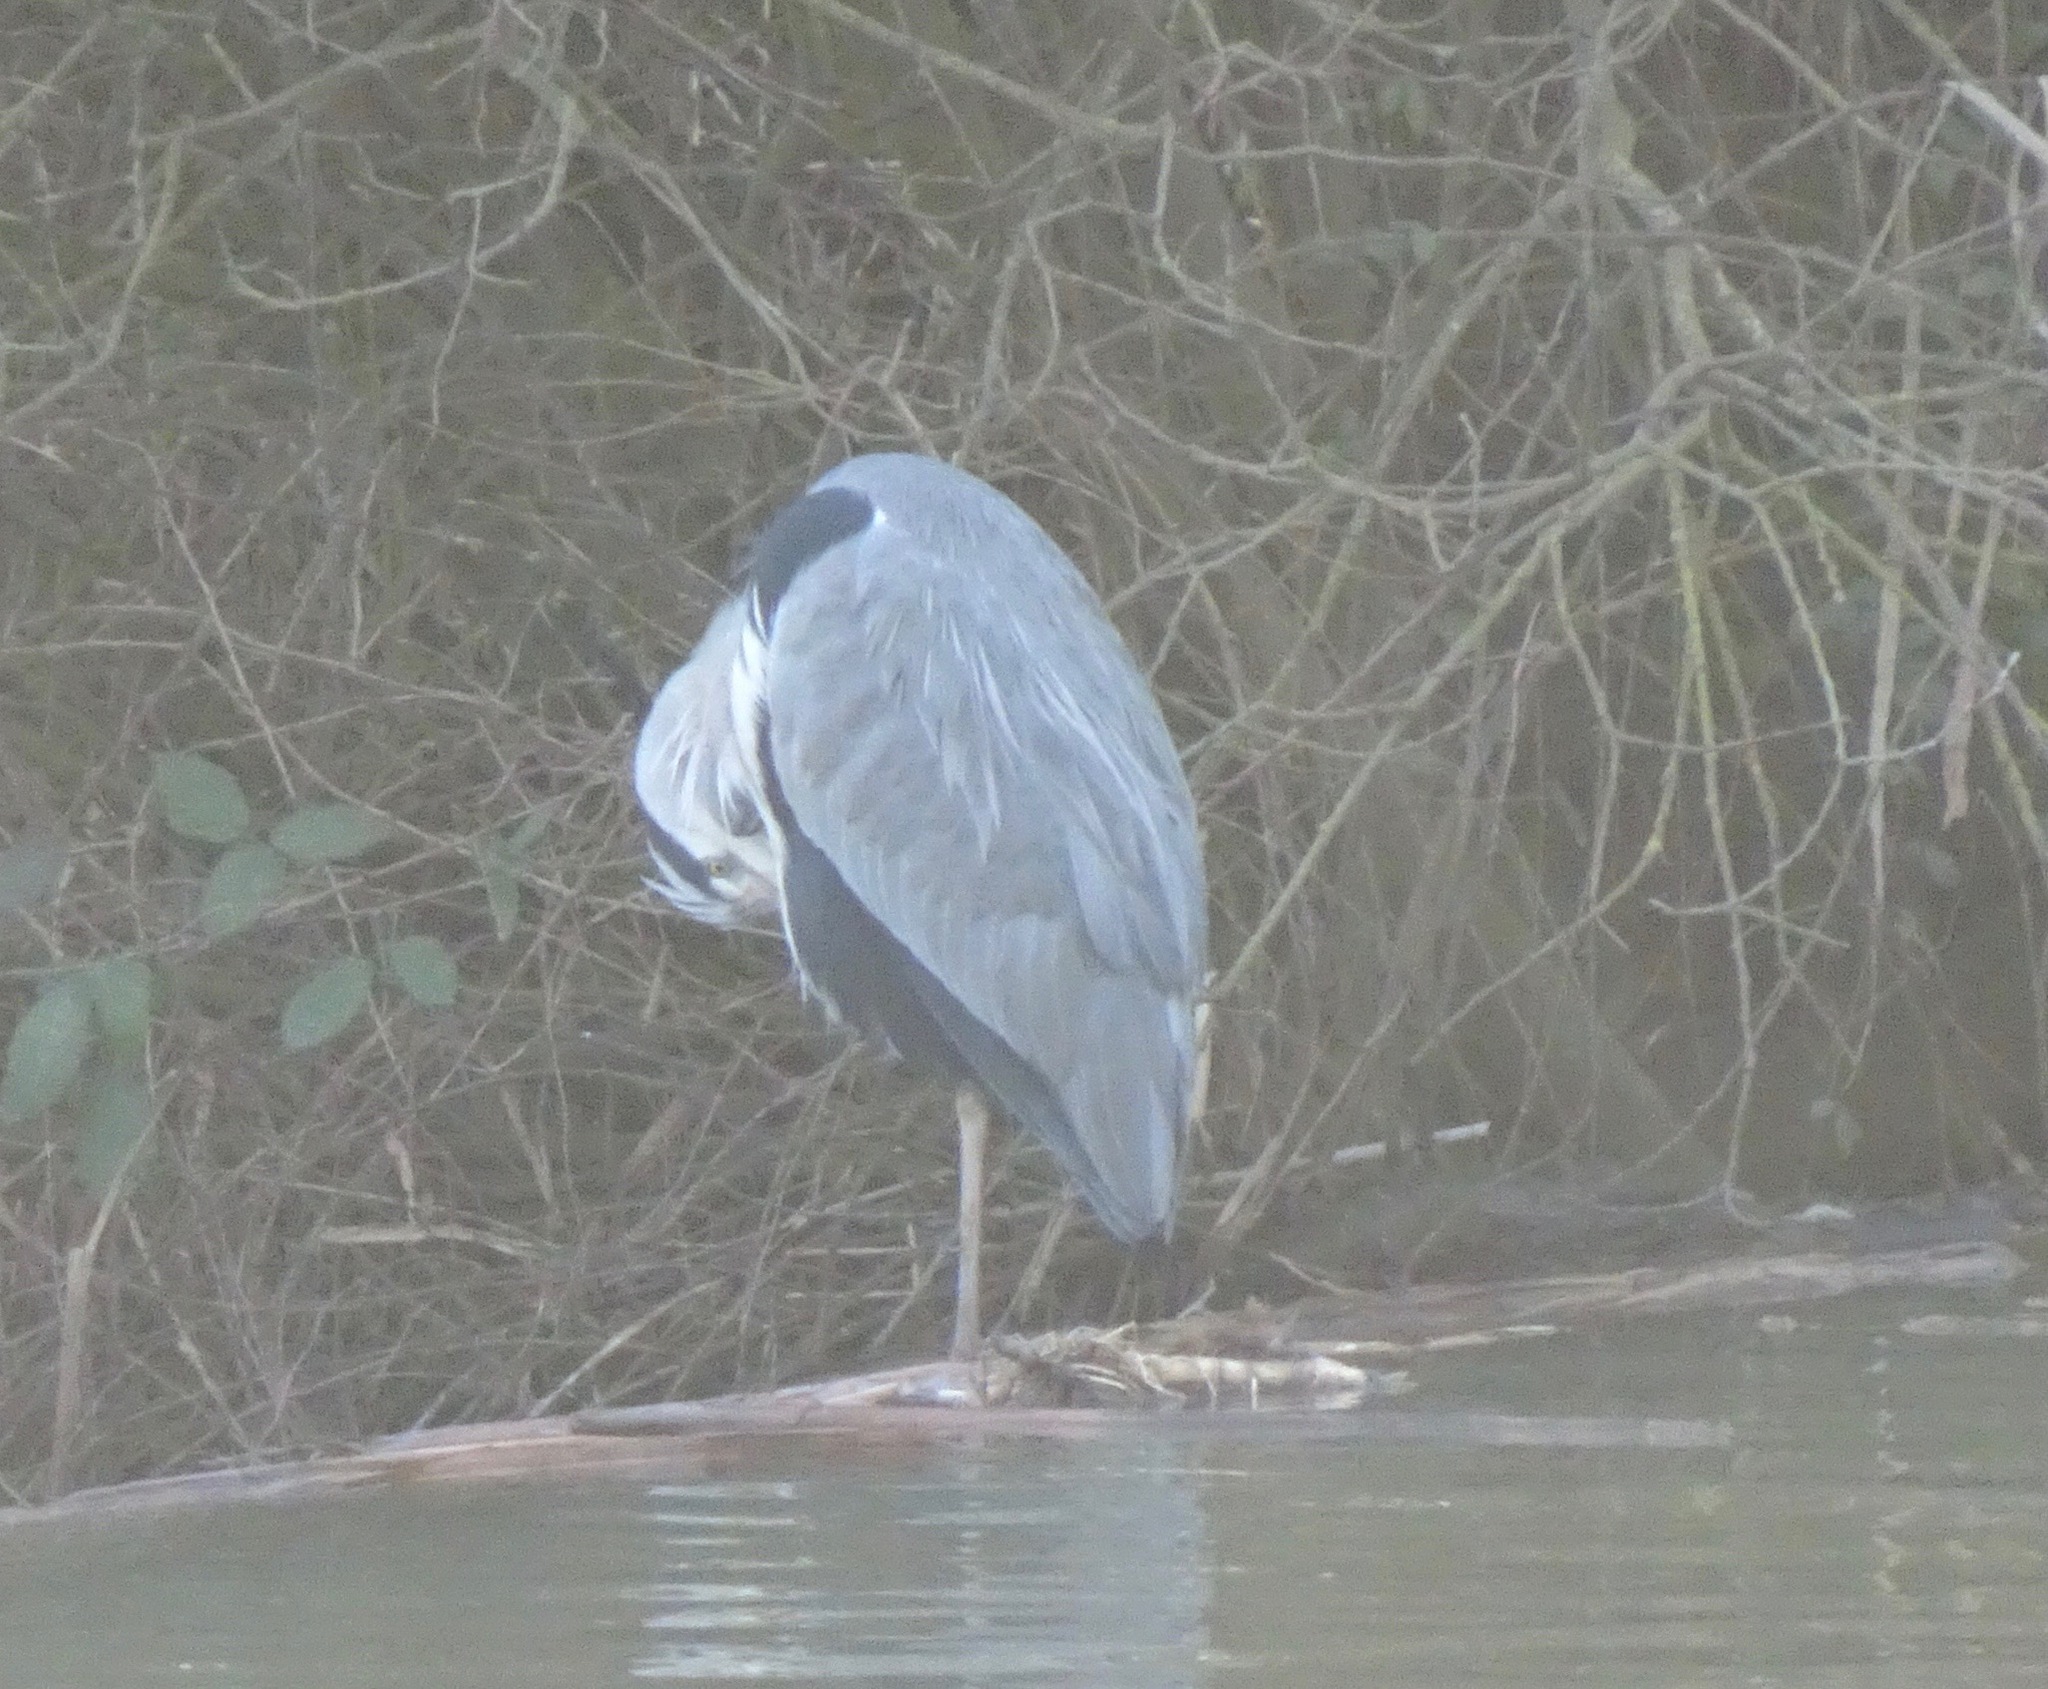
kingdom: Animalia
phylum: Chordata
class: Aves
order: Pelecaniformes
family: Ardeidae
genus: Ardea
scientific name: Ardea cinerea
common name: Grey heron
